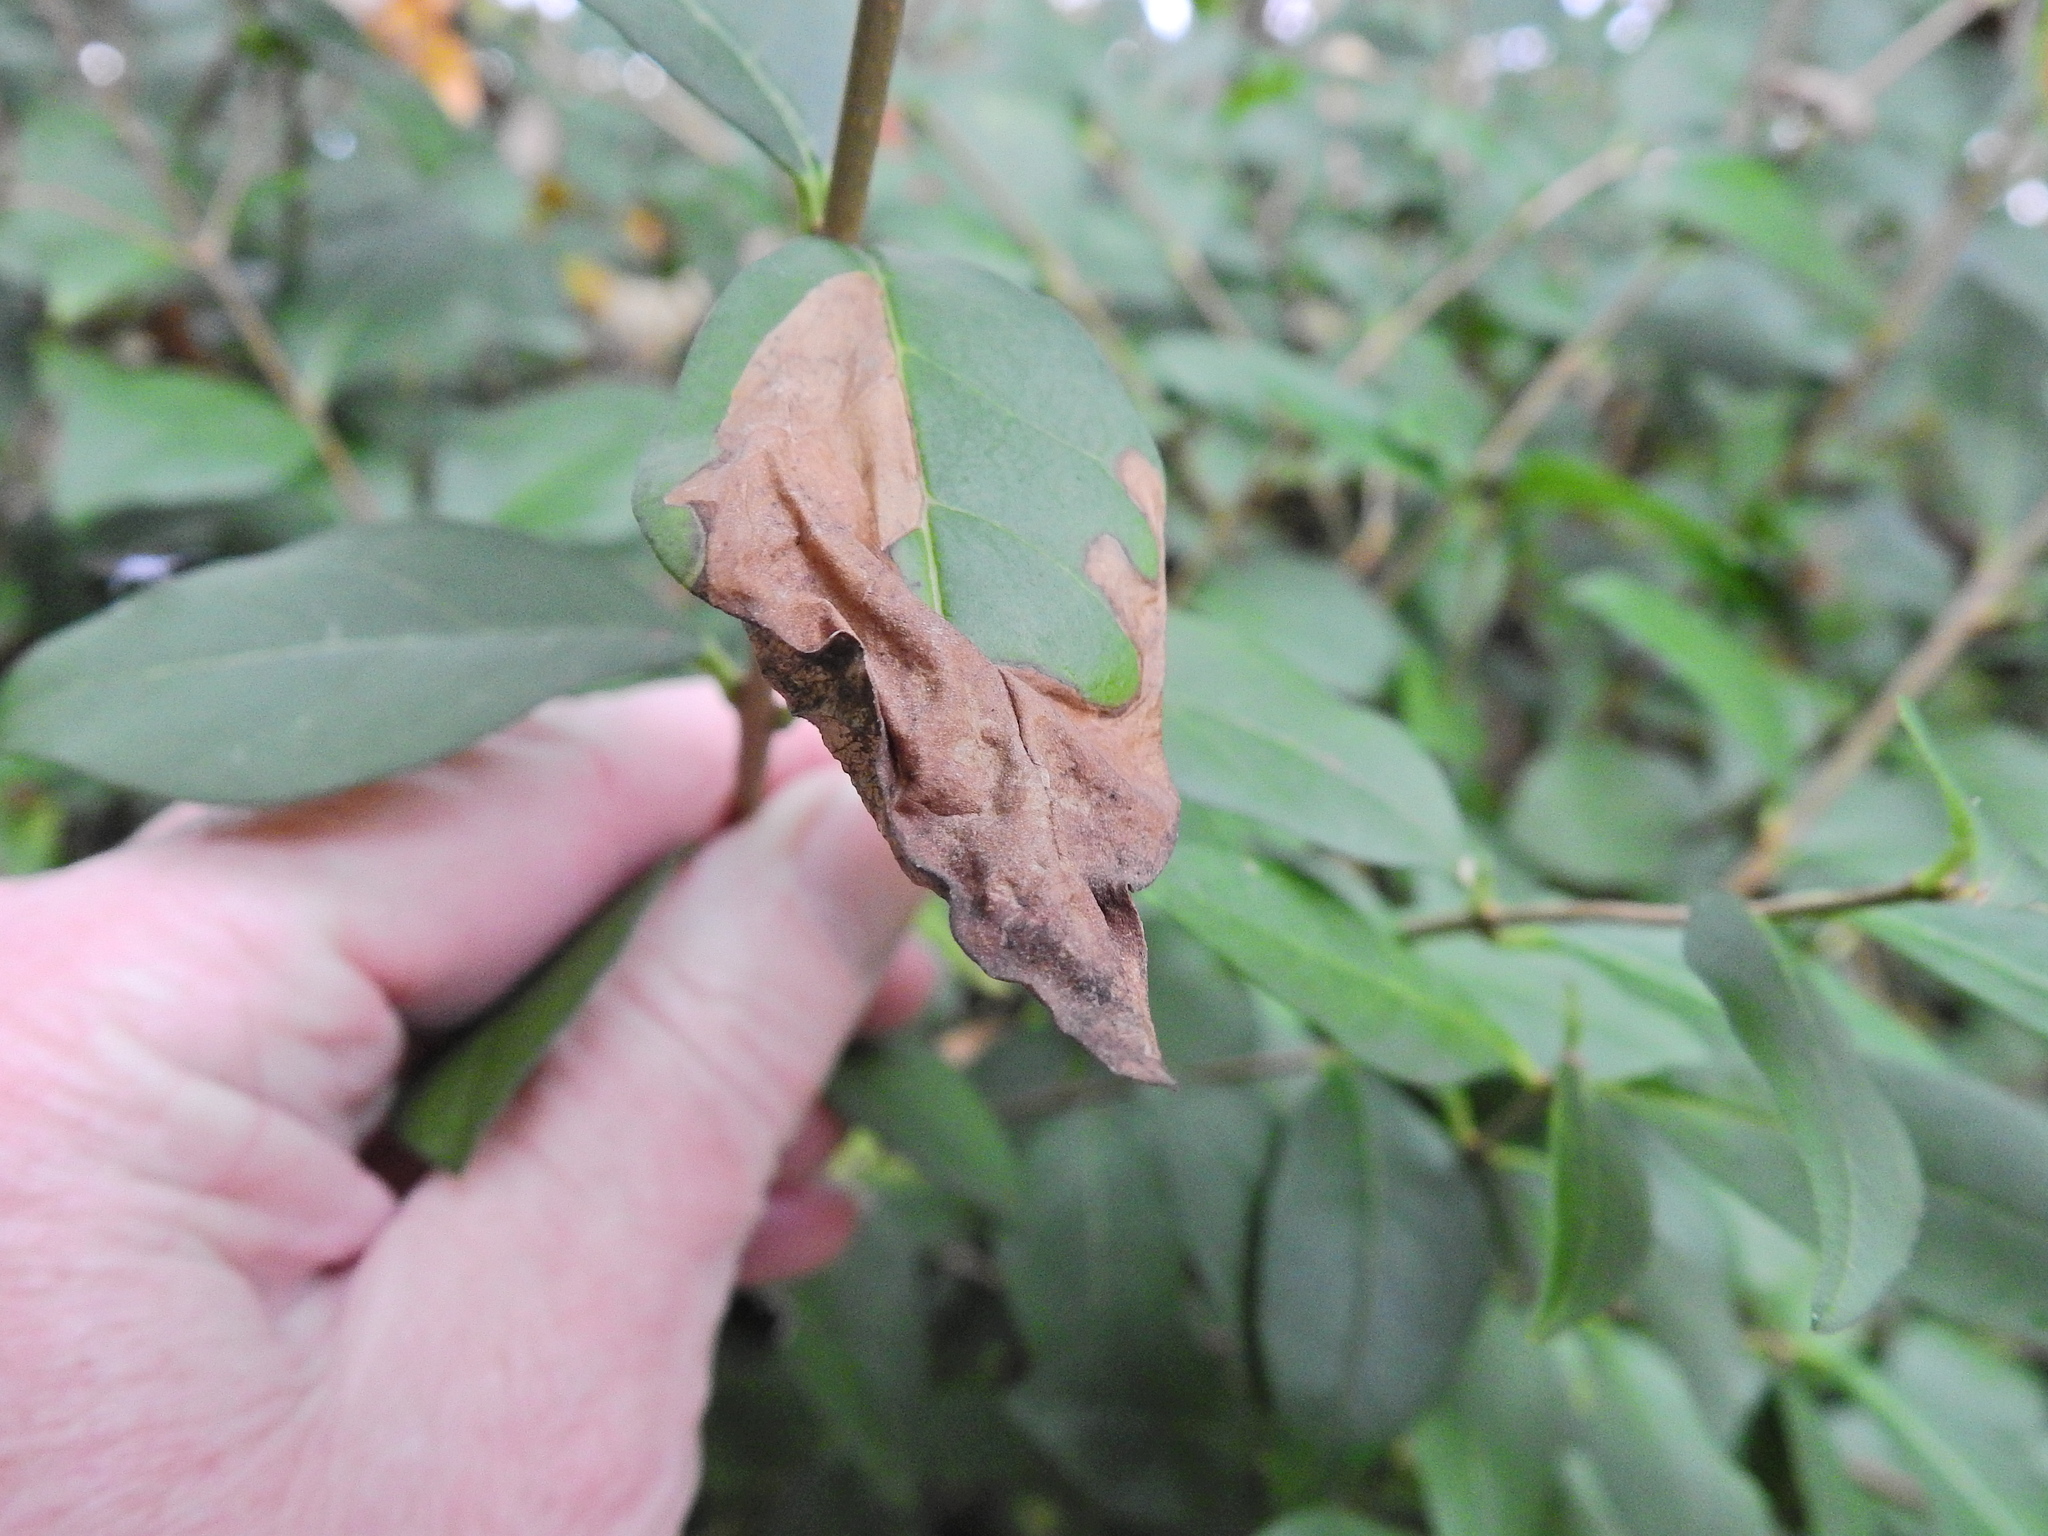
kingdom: Animalia
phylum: Arthropoda
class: Insecta
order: Lepidoptera
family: Gracillariidae
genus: Gracillaria
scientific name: Gracillaria syringella
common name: Common slender
